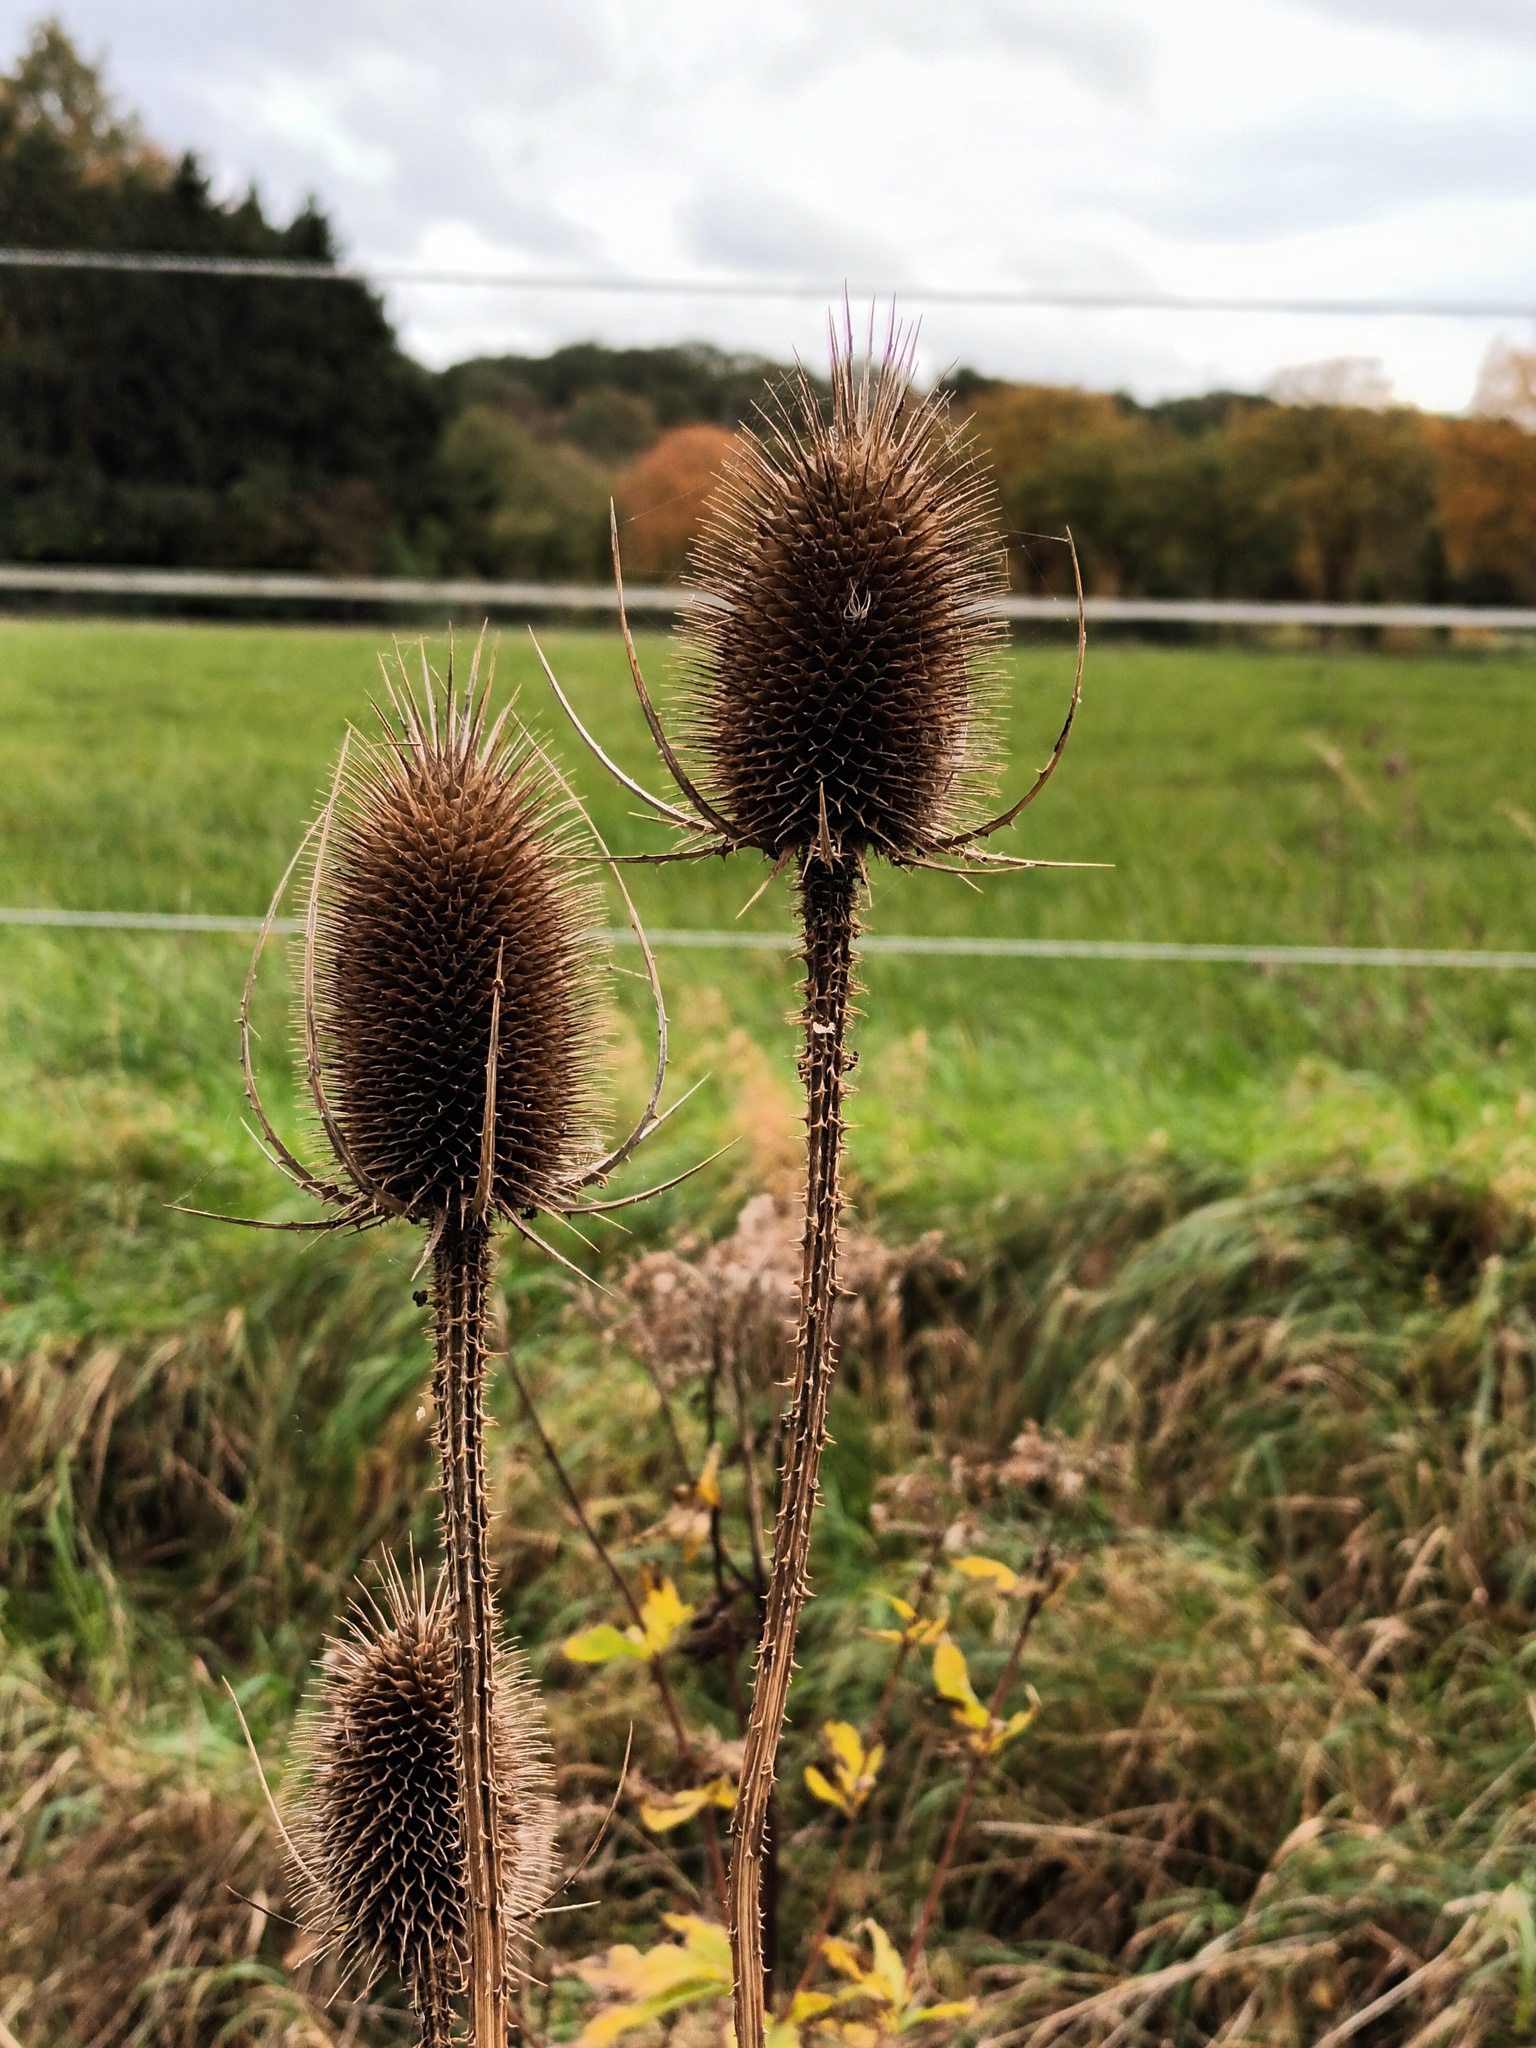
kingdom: Plantae
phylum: Tracheophyta
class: Magnoliopsida
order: Dipsacales
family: Caprifoliaceae
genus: Dipsacus
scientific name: Dipsacus fullonum
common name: Teasel
